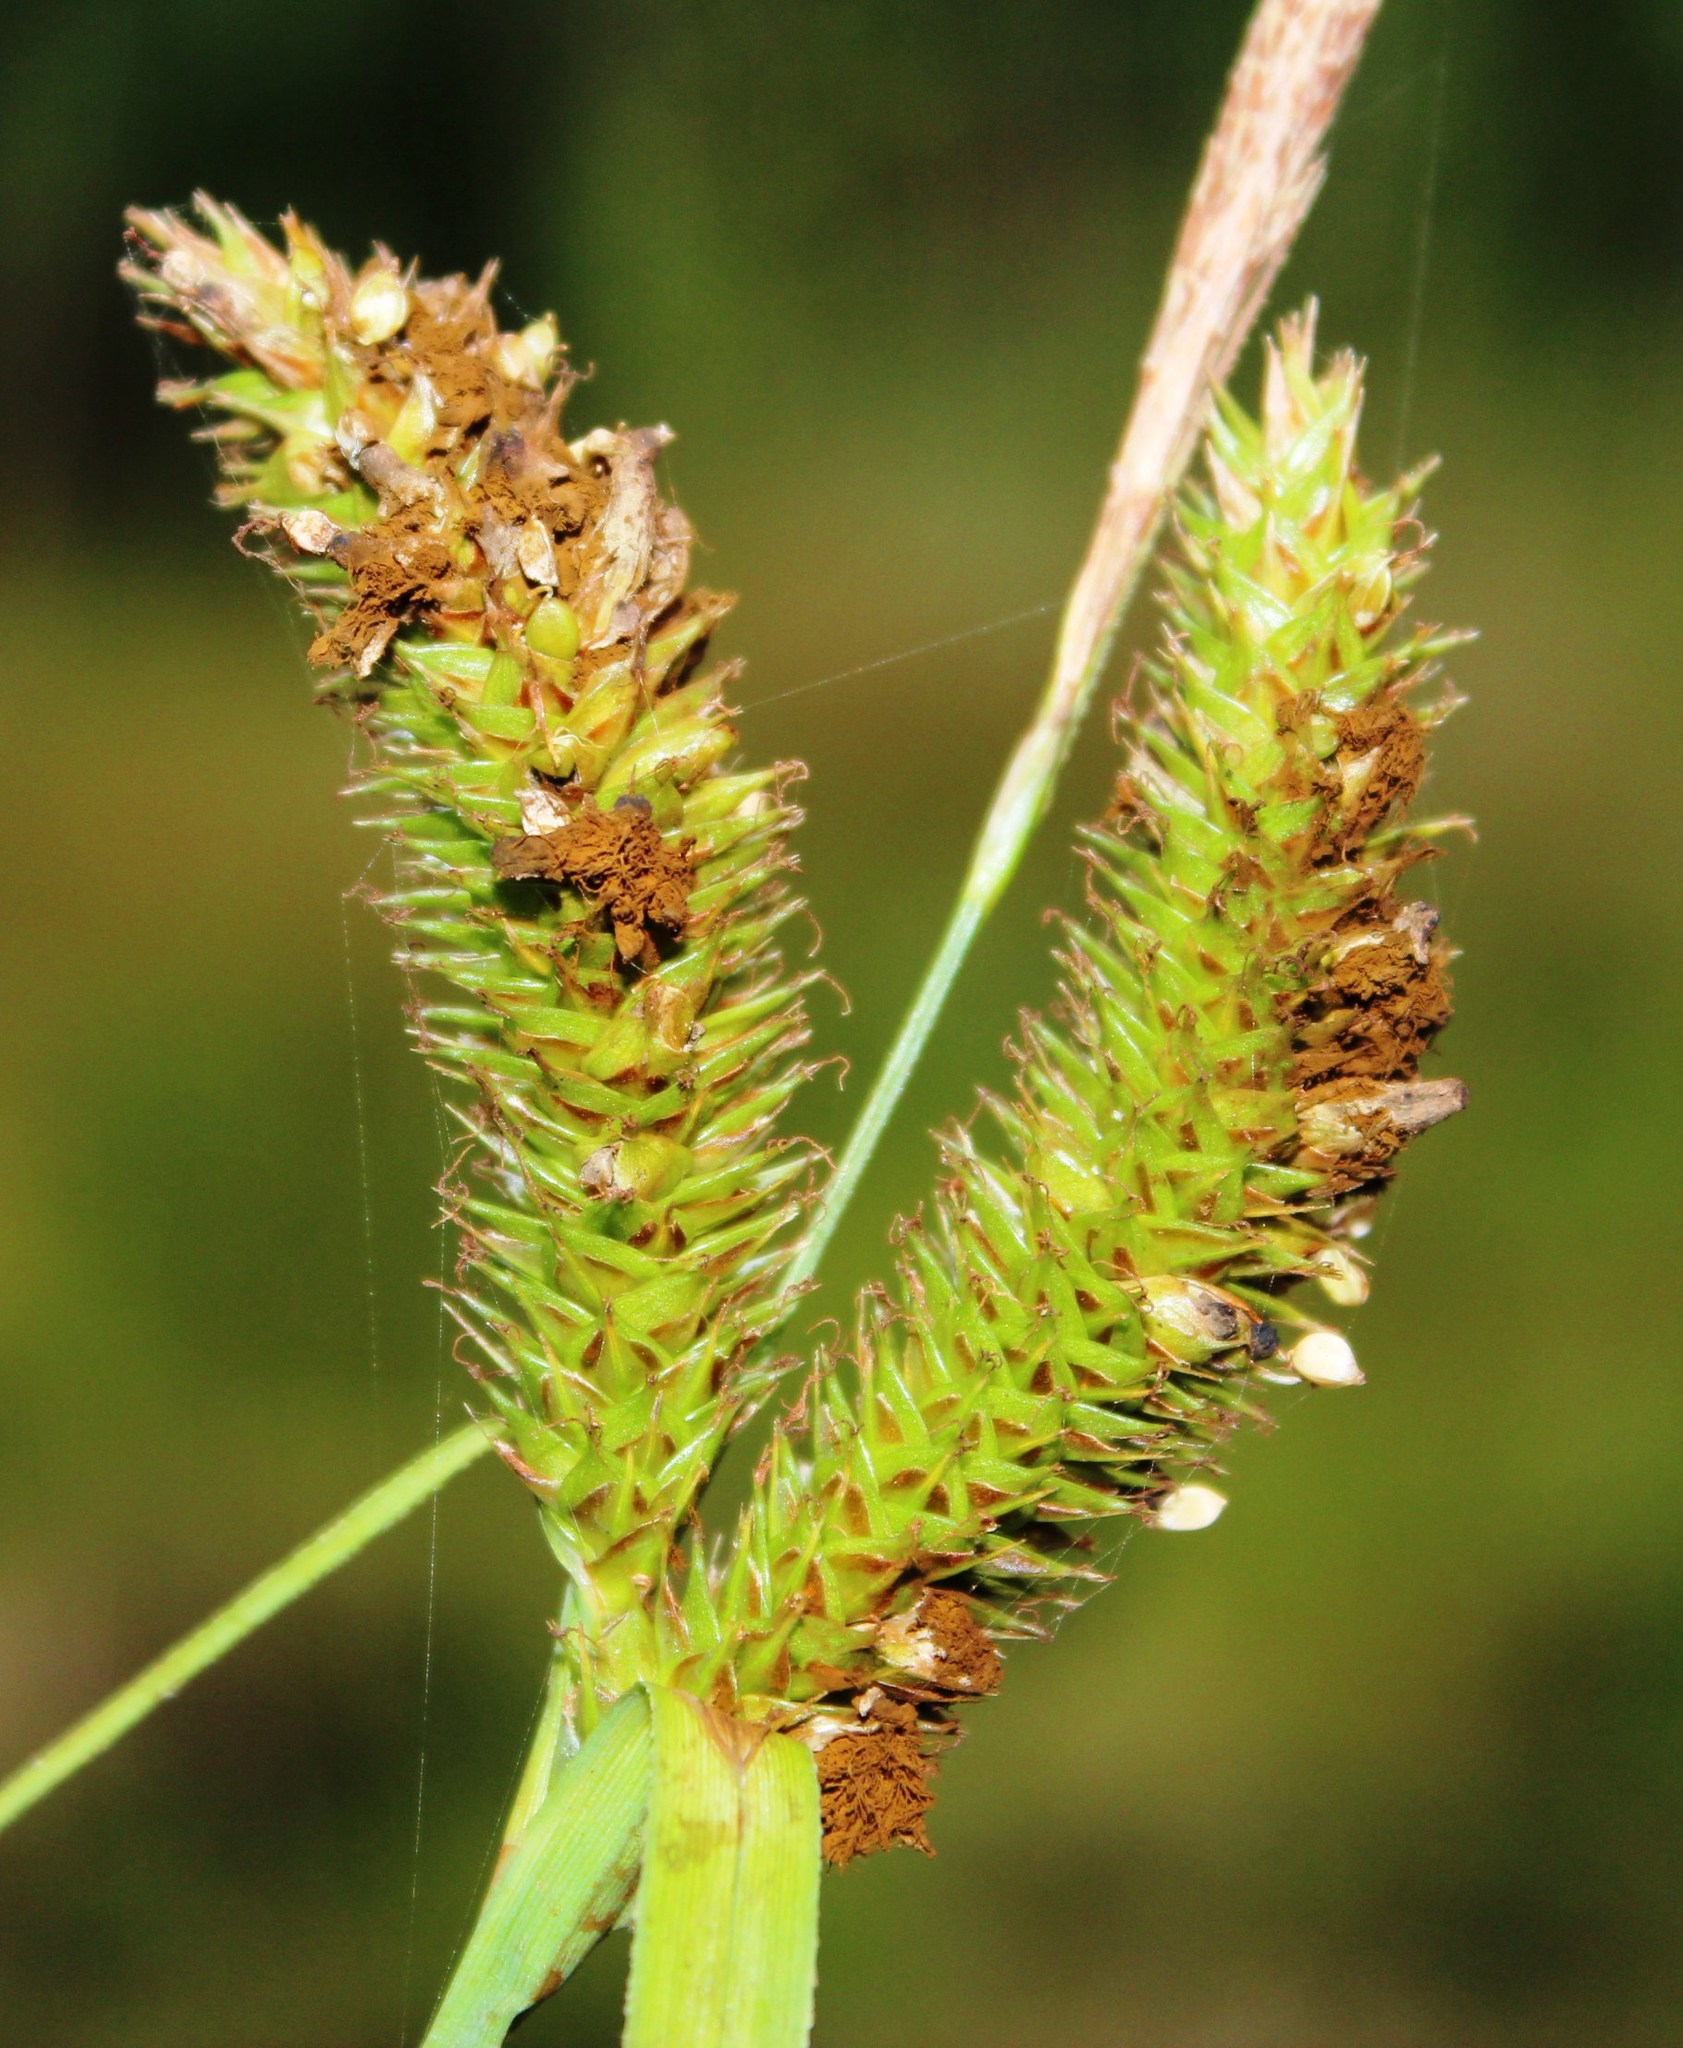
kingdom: Plantae
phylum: Tracheophyta
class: Liliopsida
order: Poales
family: Cyperaceae
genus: Carex
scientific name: Carex aethiopica
